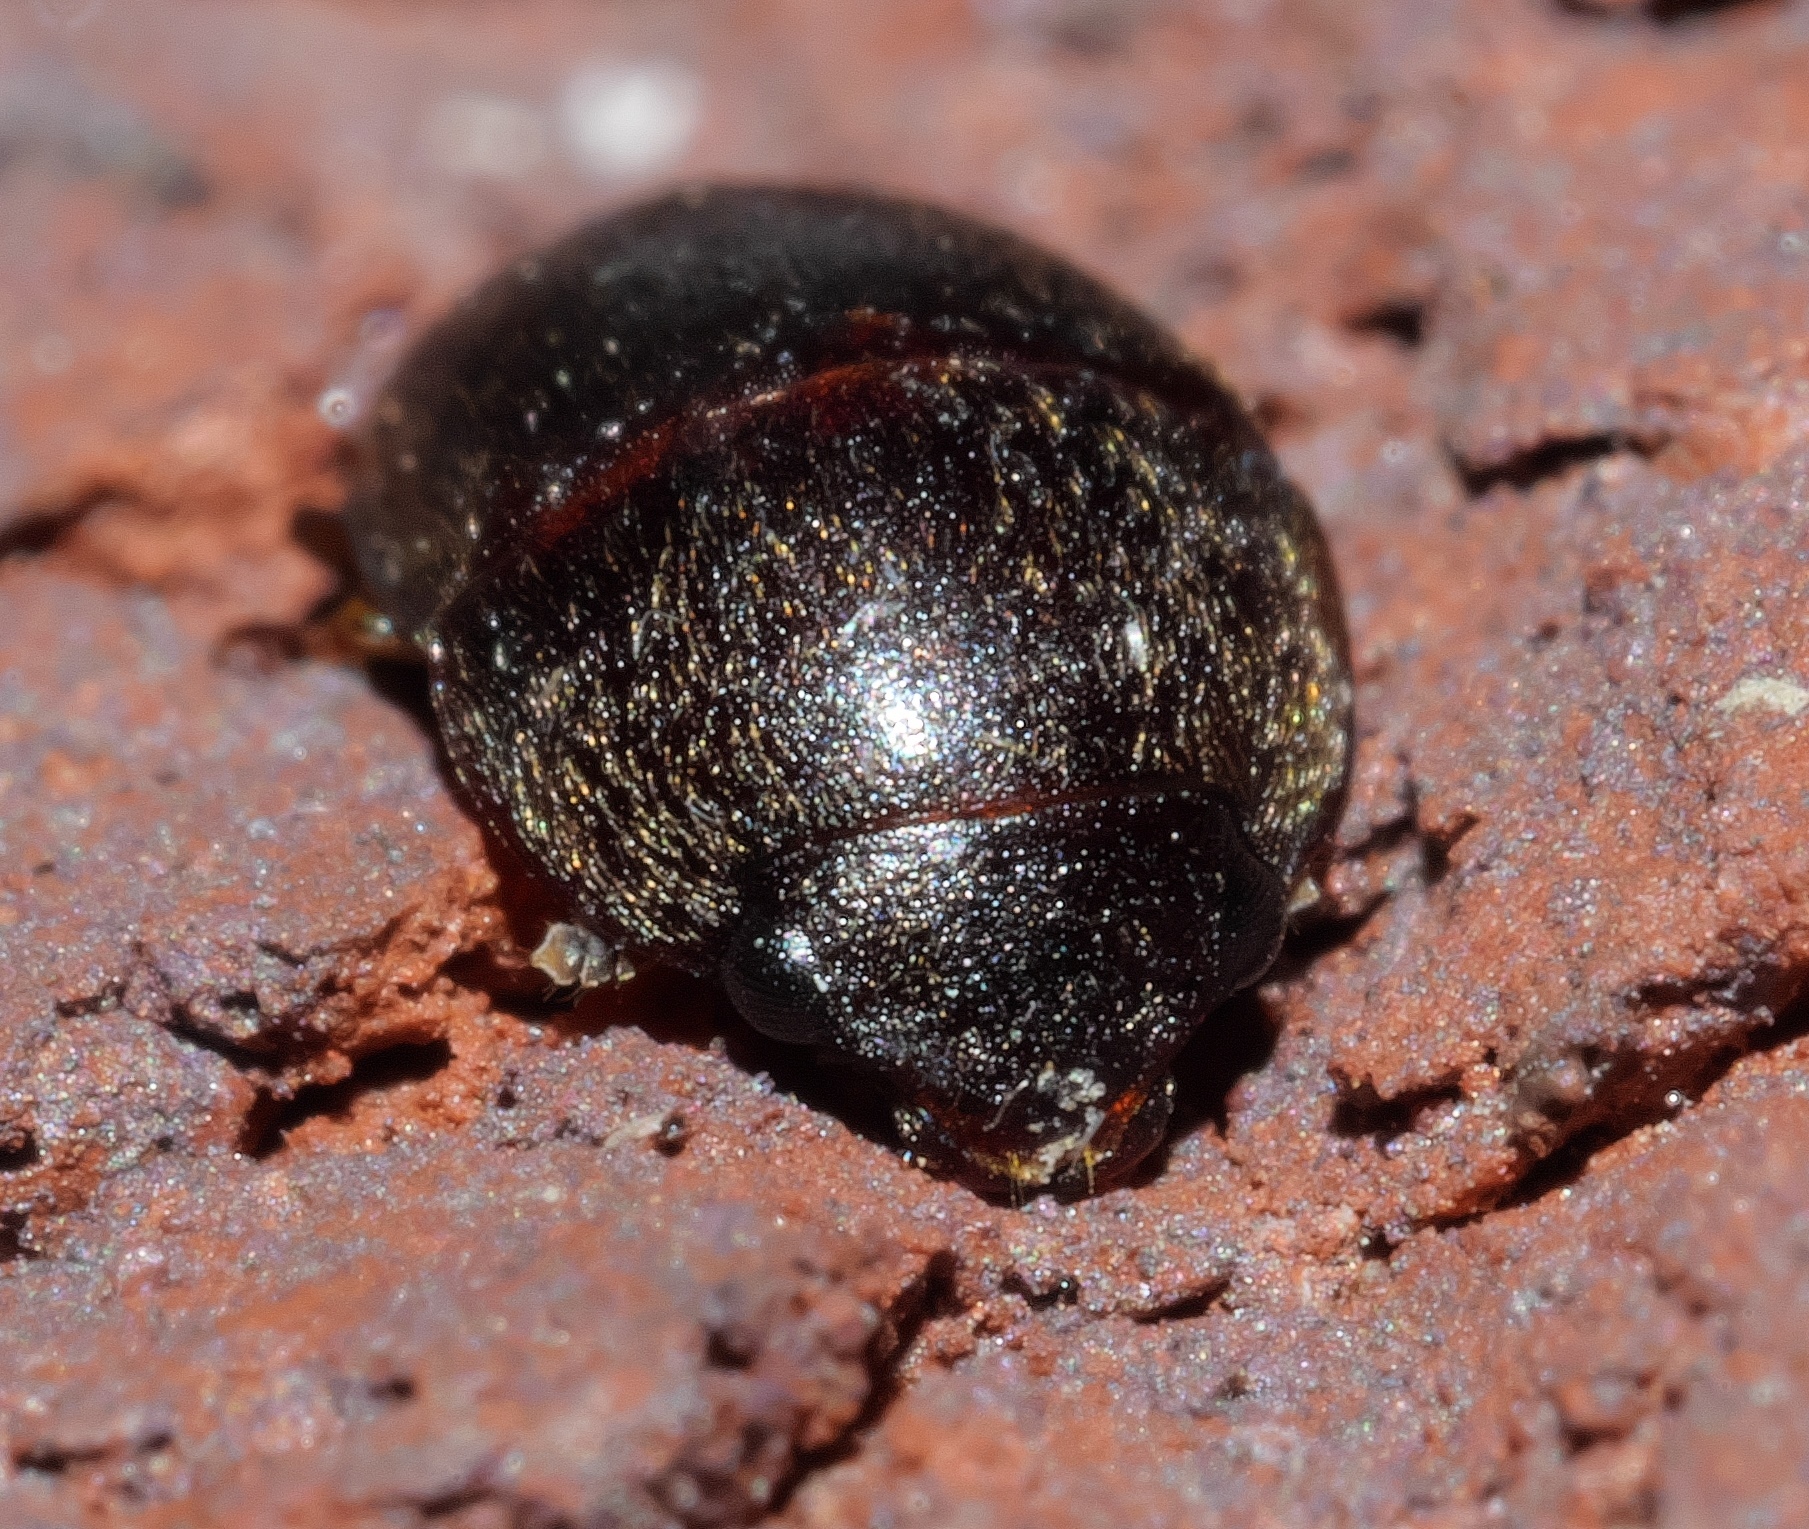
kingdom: Animalia
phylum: Arthropoda
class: Insecta
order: Coleoptera
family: Nitidulidae
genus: Cryptarcha
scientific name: Cryptarcha ampla
